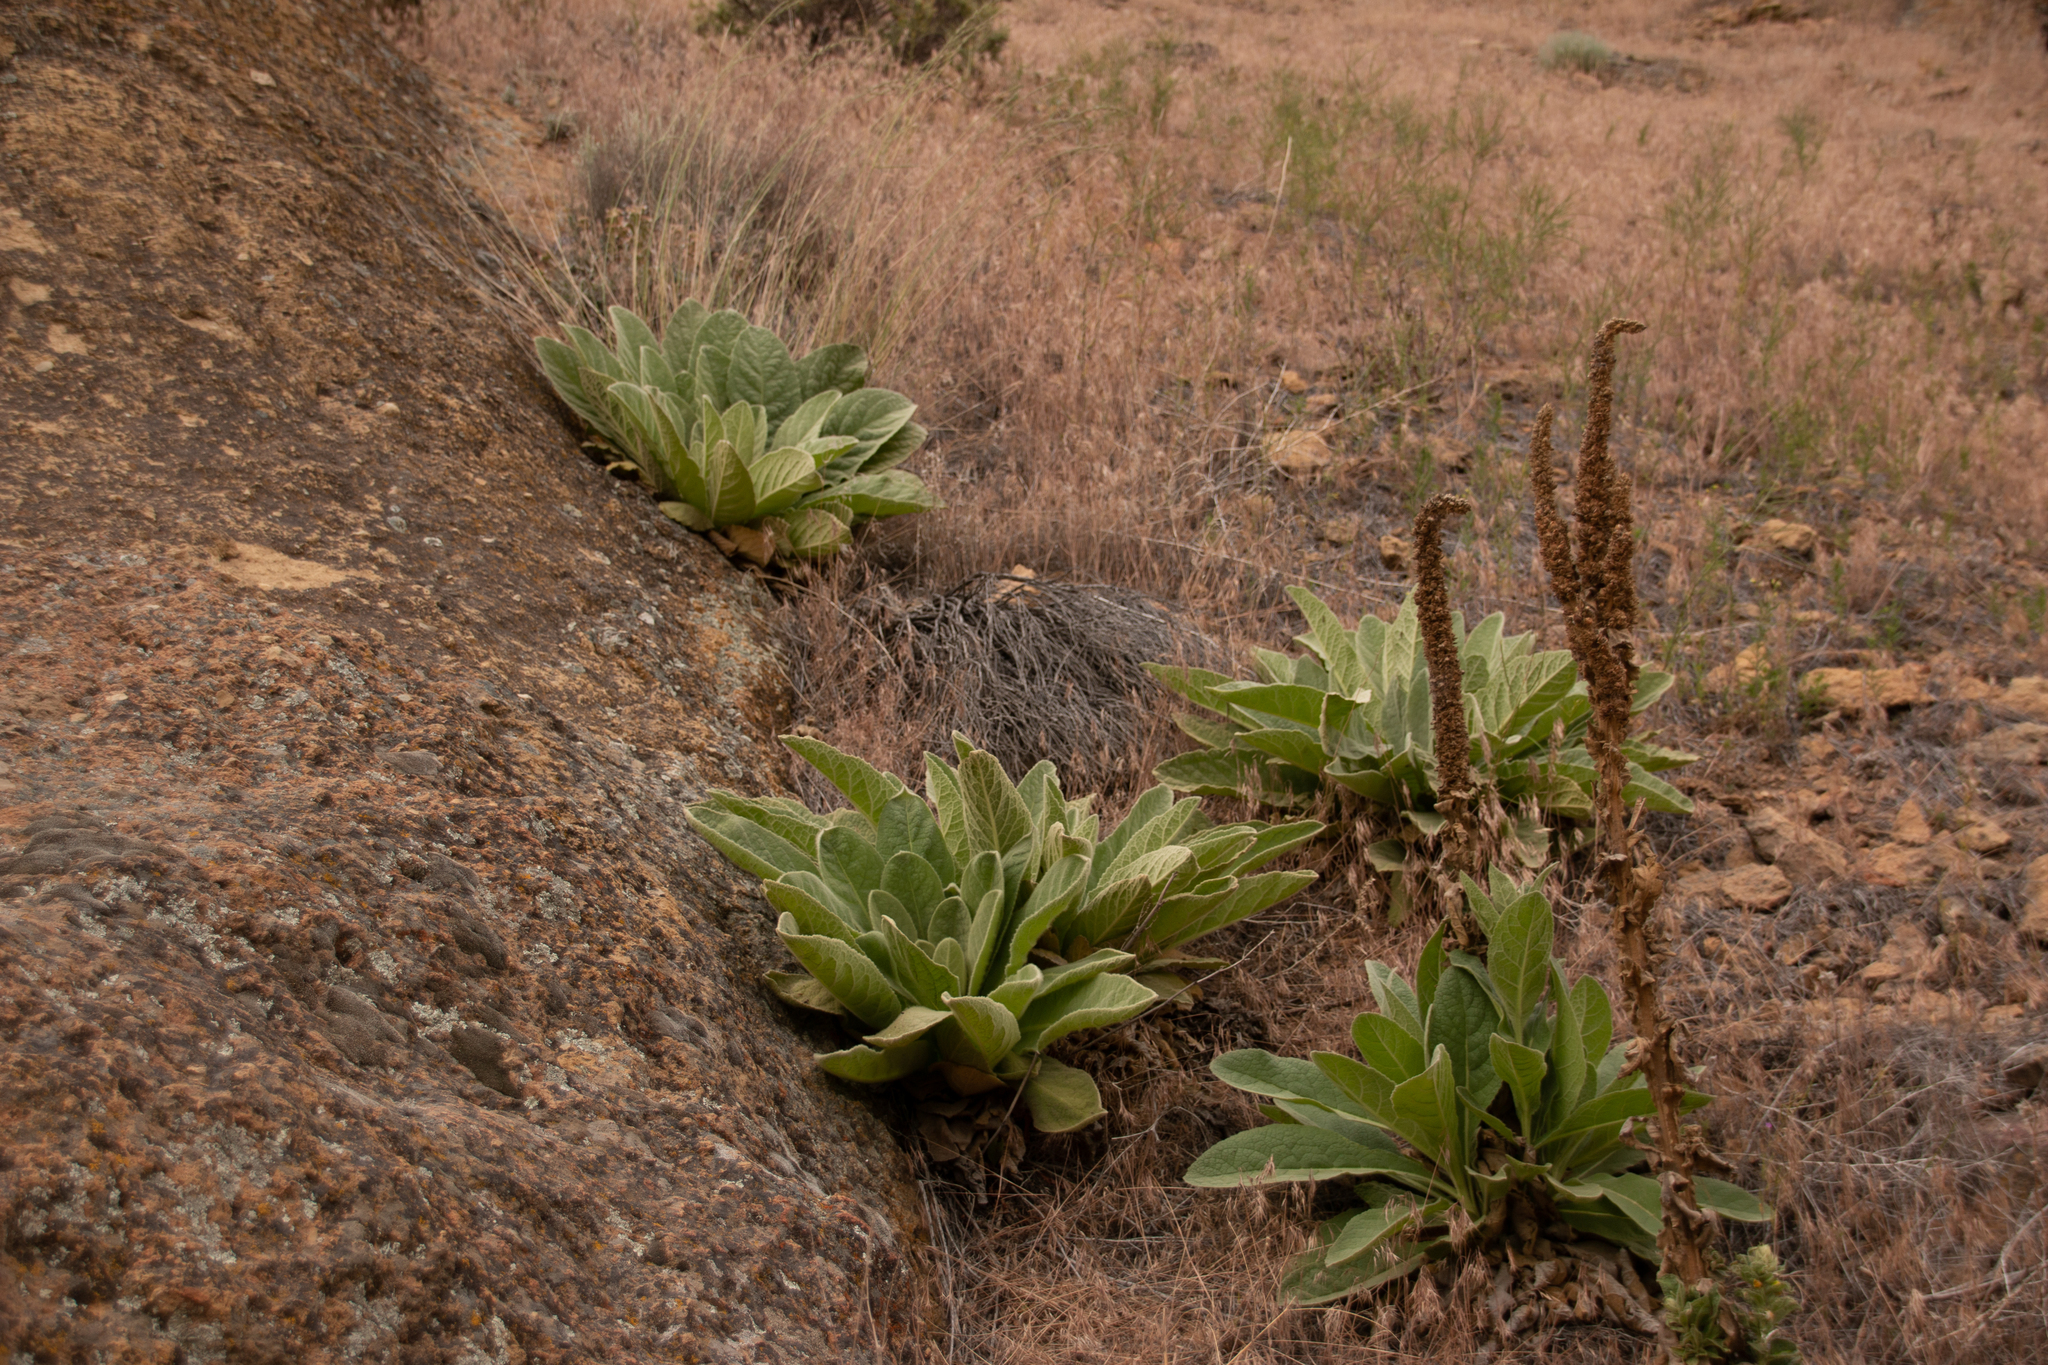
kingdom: Plantae
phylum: Tracheophyta
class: Magnoliopsida
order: Lamiales
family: Scrophulariaceae
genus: Verbascum
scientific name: Verbascum thapsus
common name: Common mullein
